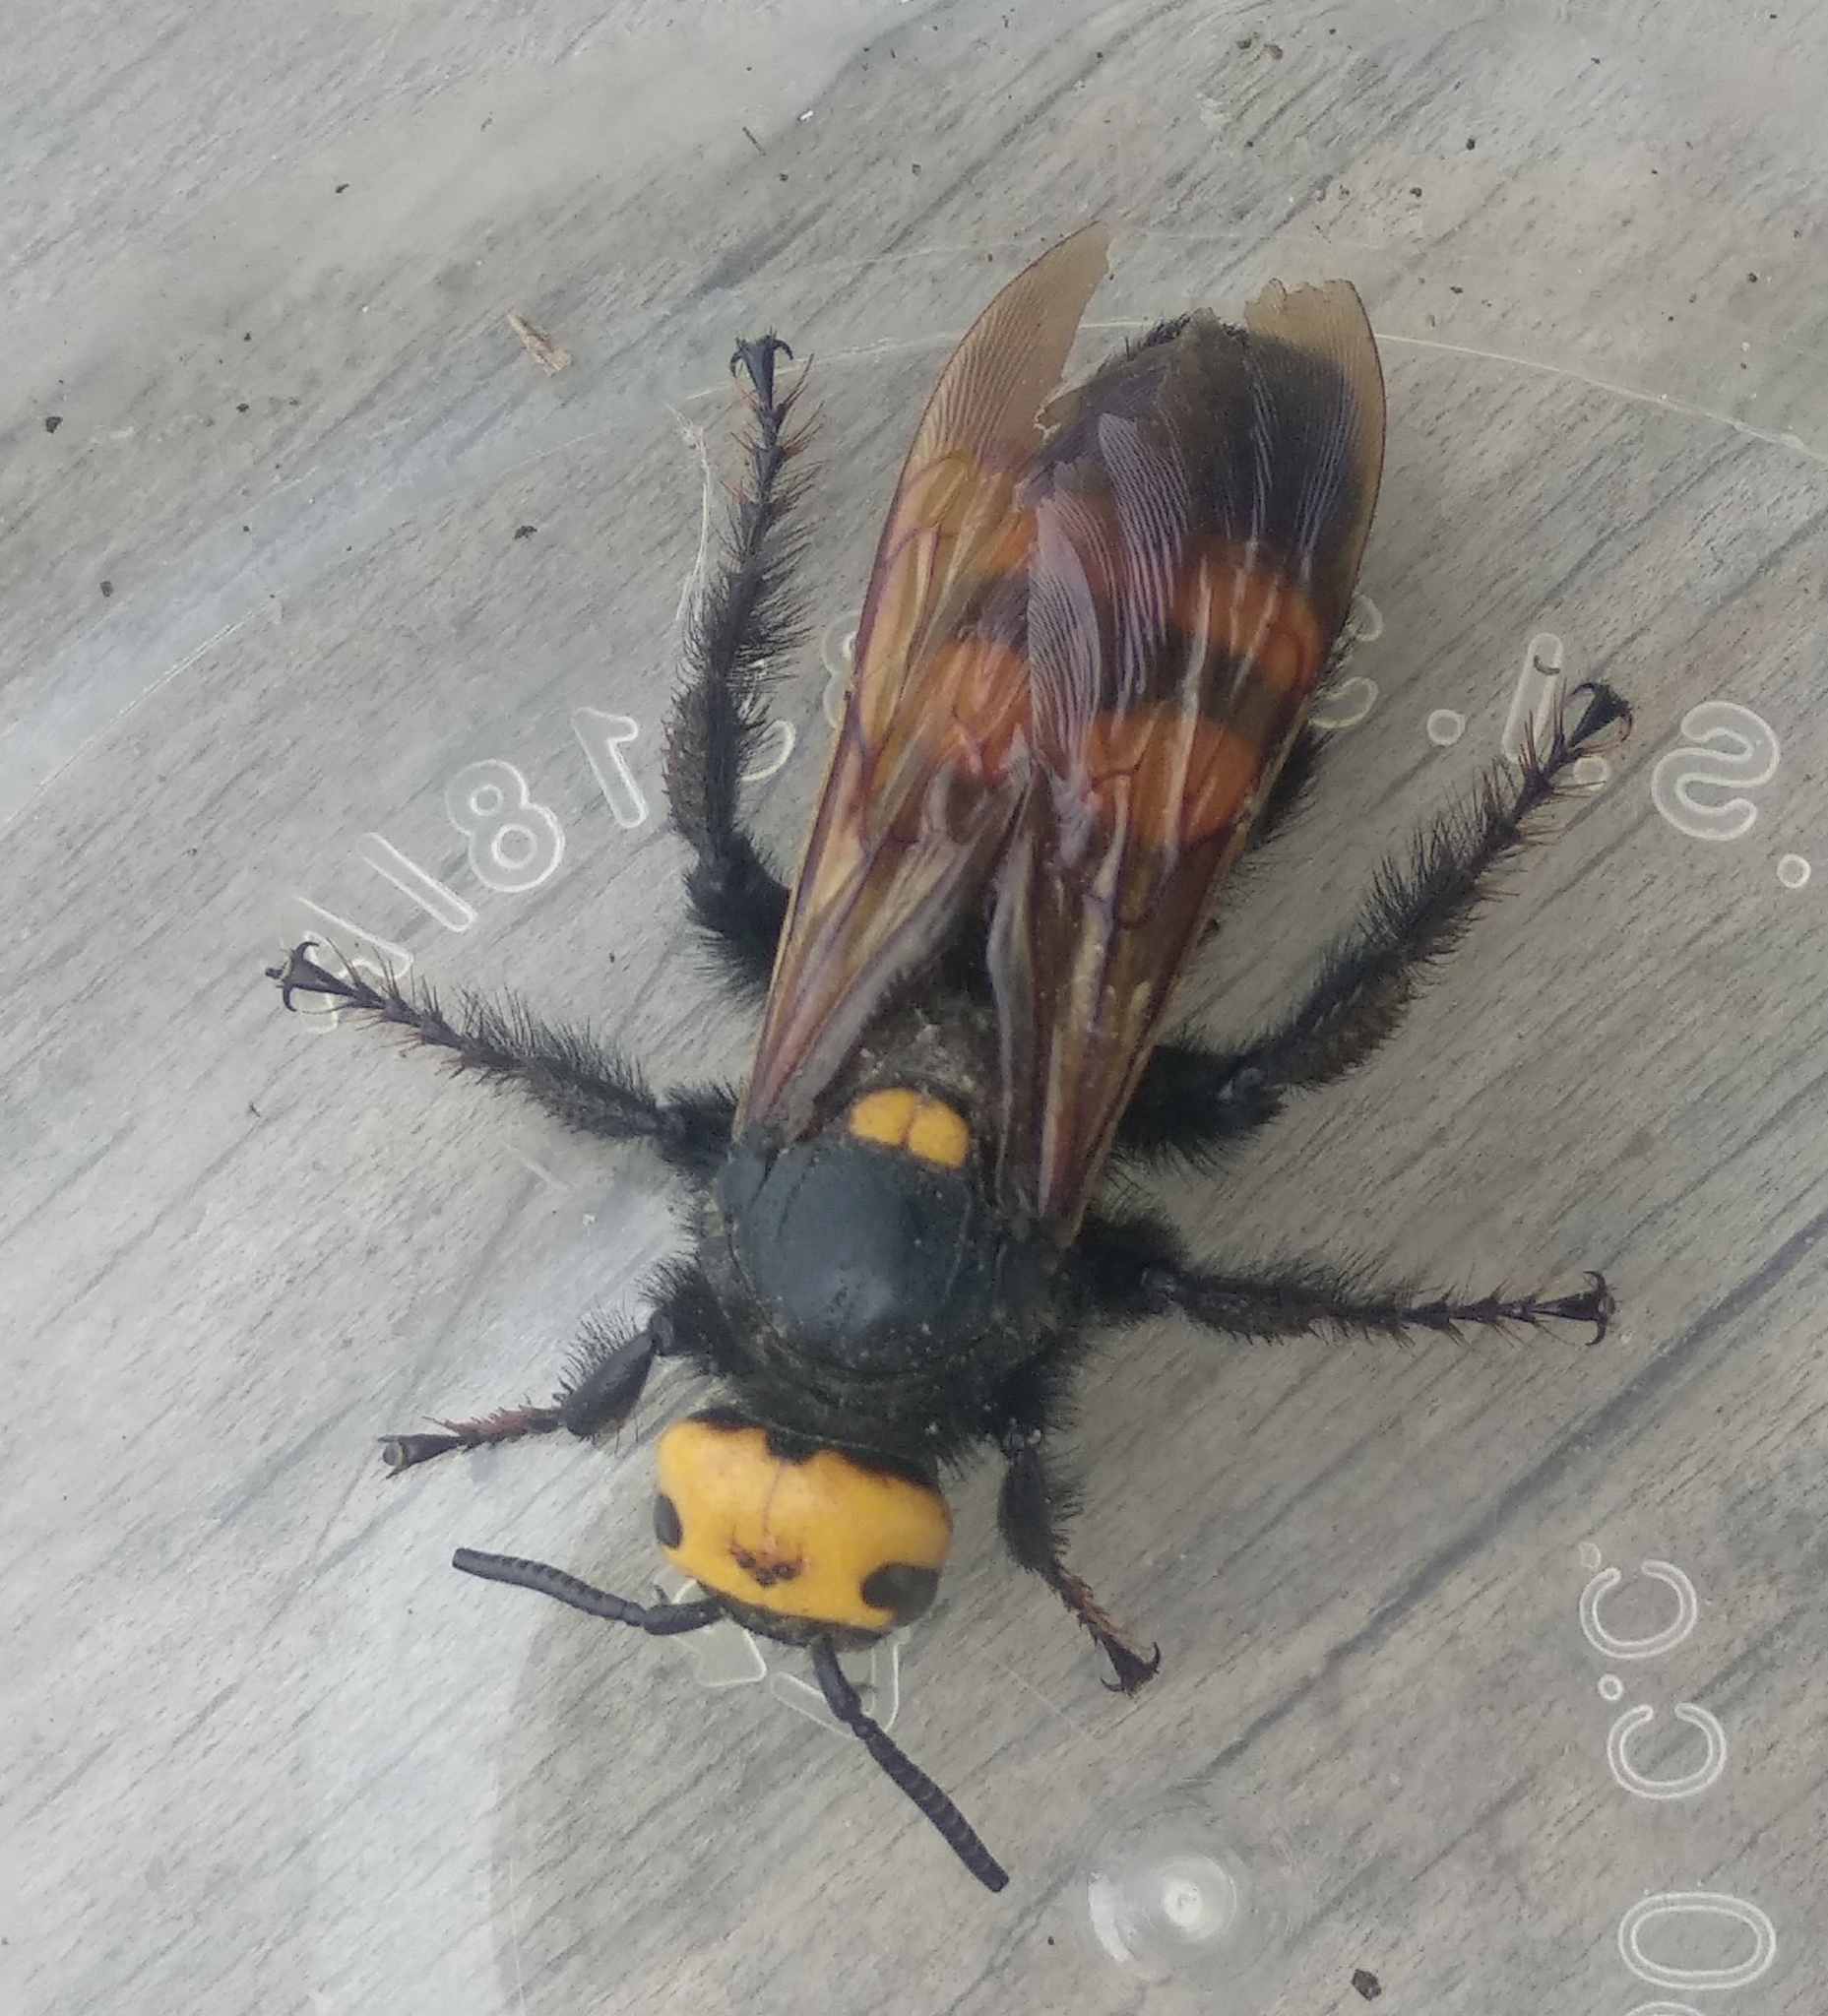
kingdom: Animalia
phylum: Arthropoda
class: Insecta
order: Hymenoptera
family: Scoliidae
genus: Megascolia
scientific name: Megascolia maculata
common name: Mammoth wasp
